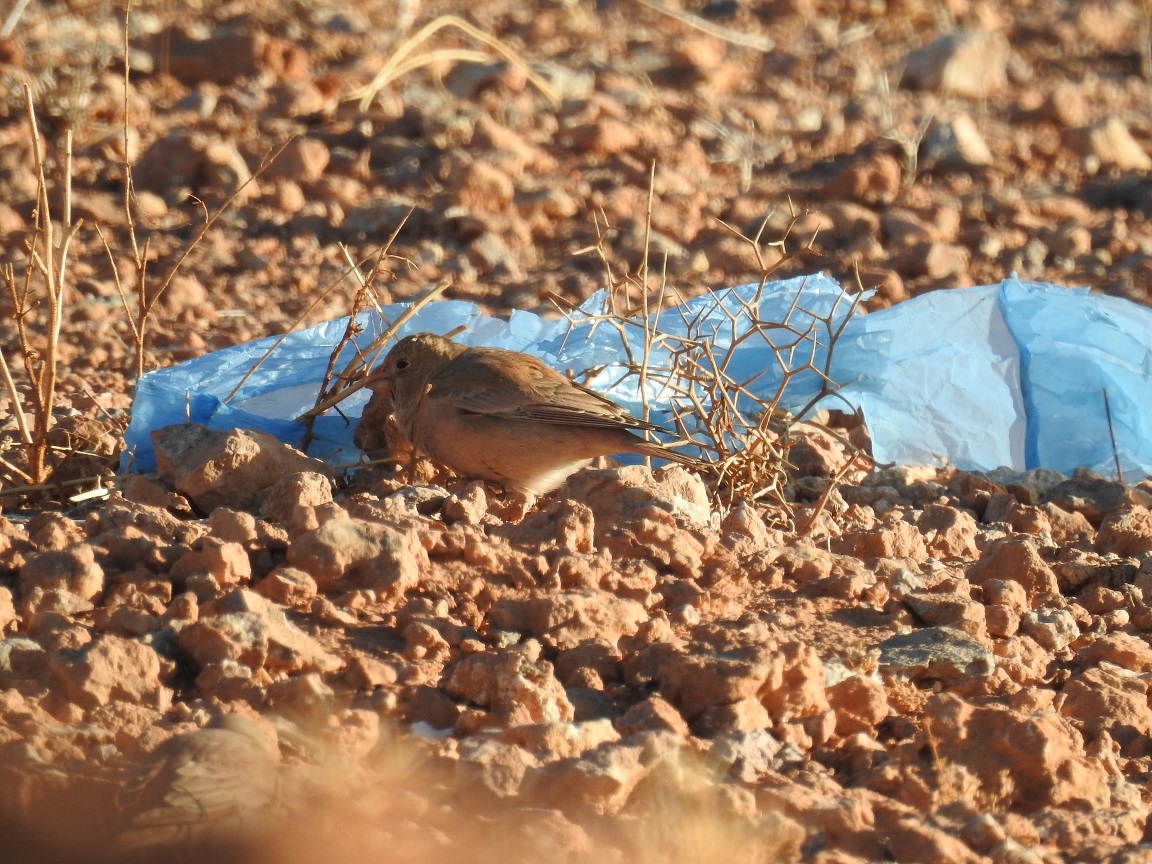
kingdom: Animalia
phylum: Chordata
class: Aves
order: Passeriformes
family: Fringillidae
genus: Bucanetes
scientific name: Bucanetes githagineus
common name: Trumpeter finch
